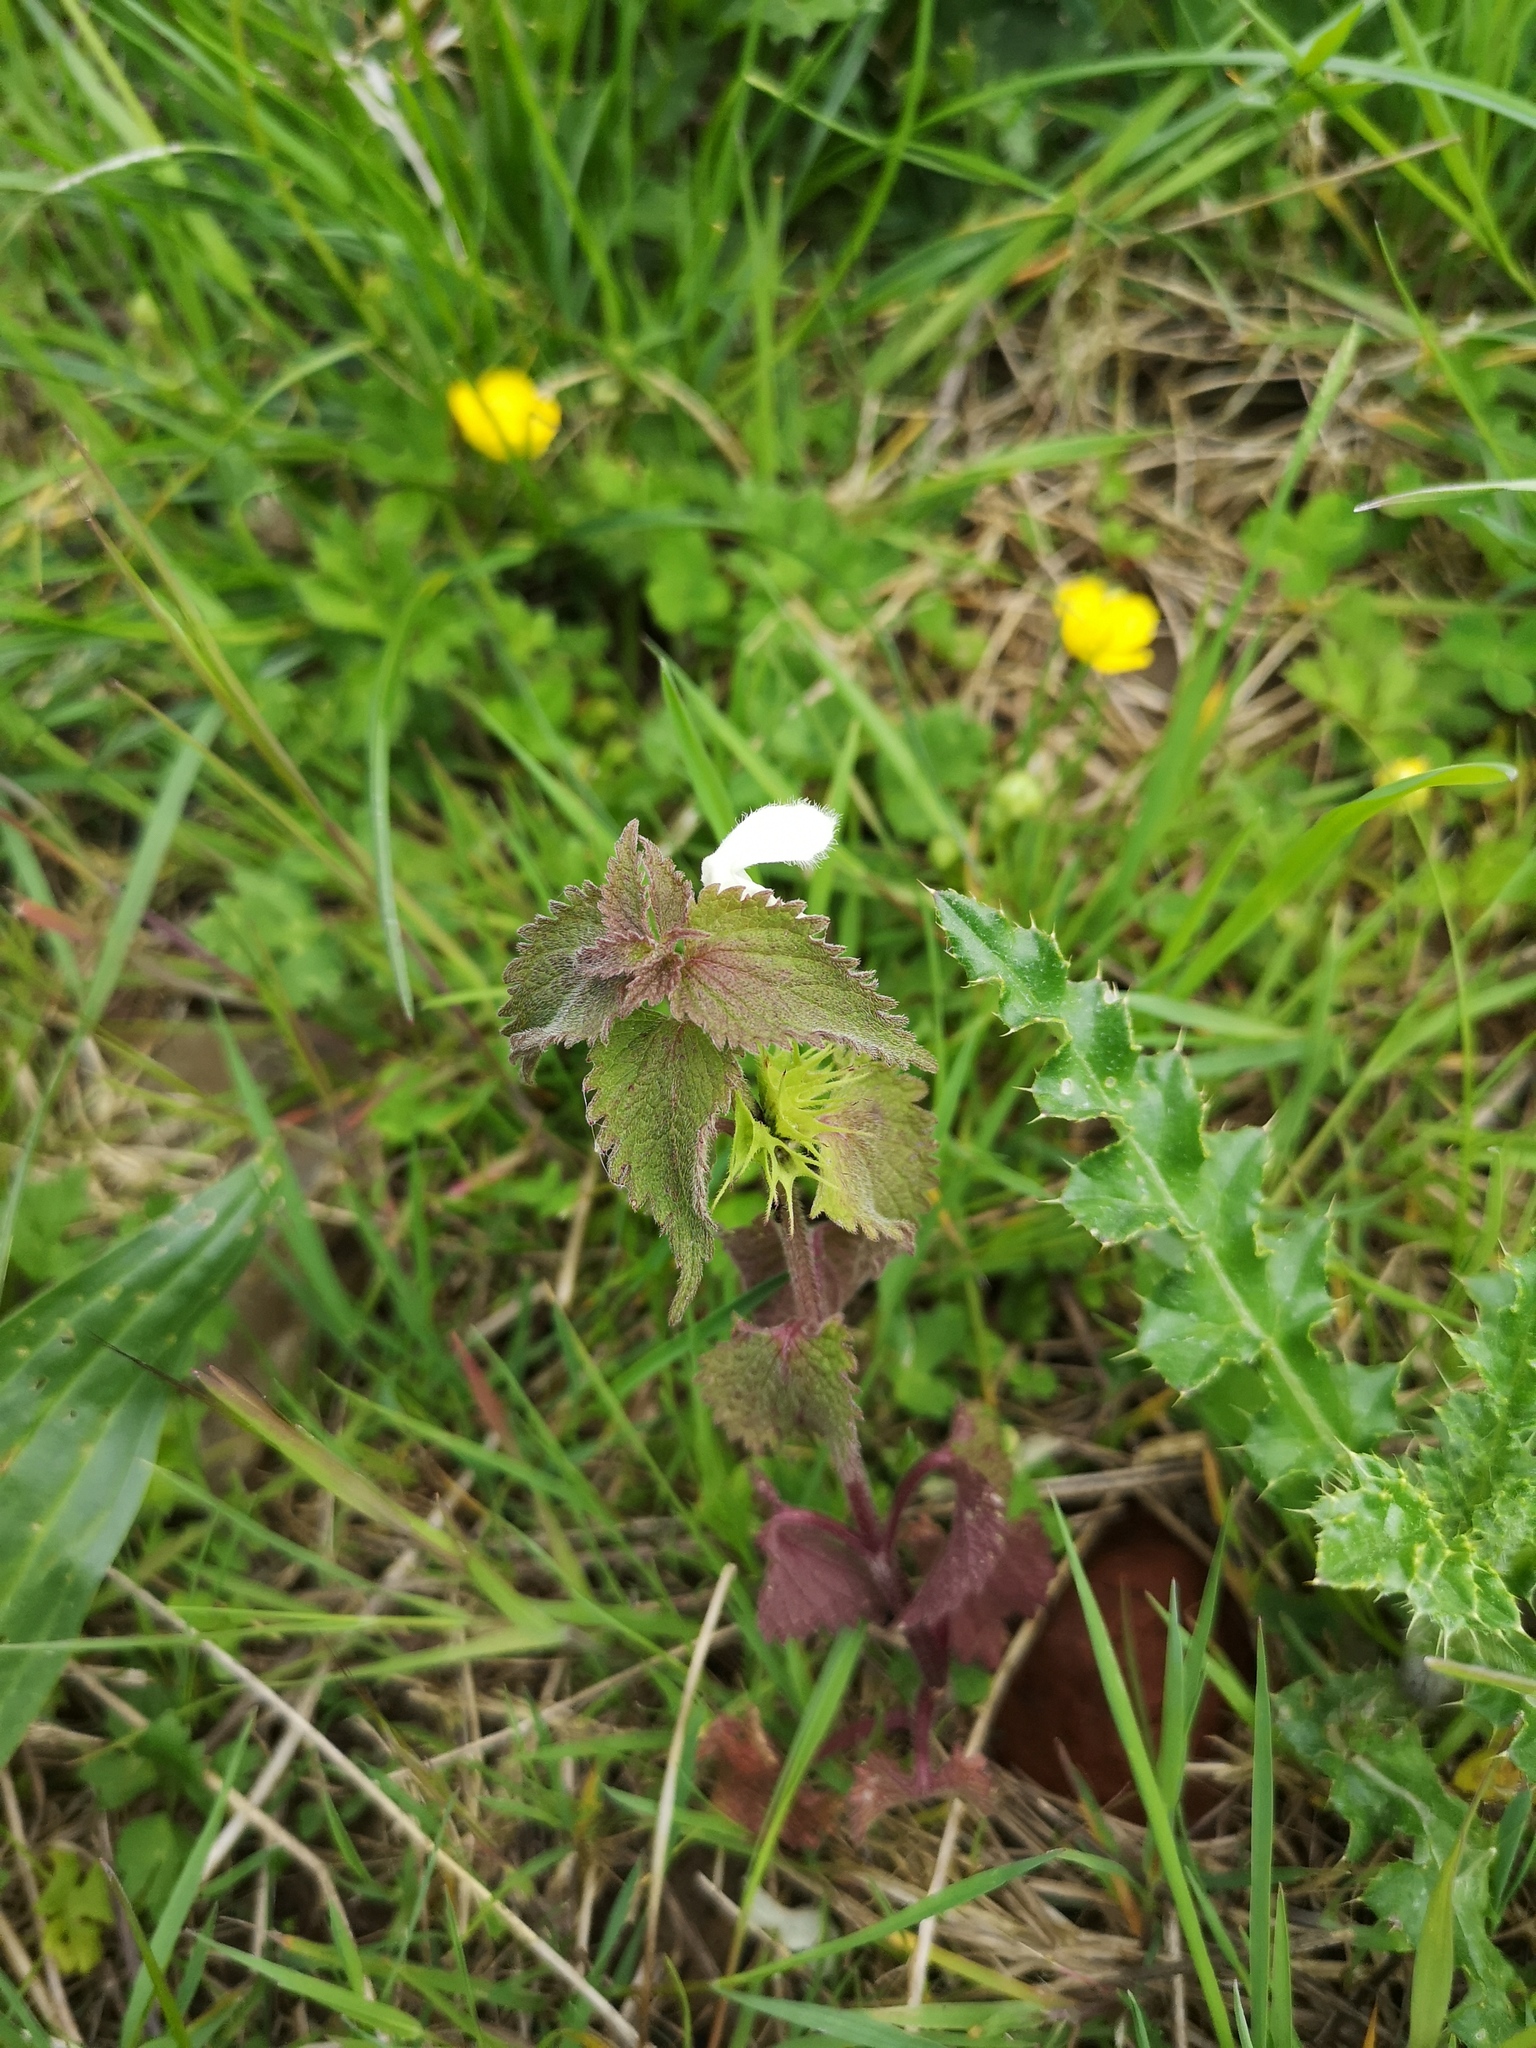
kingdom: Plantae
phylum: Tracheophyta
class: Magnoliopsida
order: Lamiales
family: Lamiaceae
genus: Lamium
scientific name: Lamium album
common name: White dead-nettle
